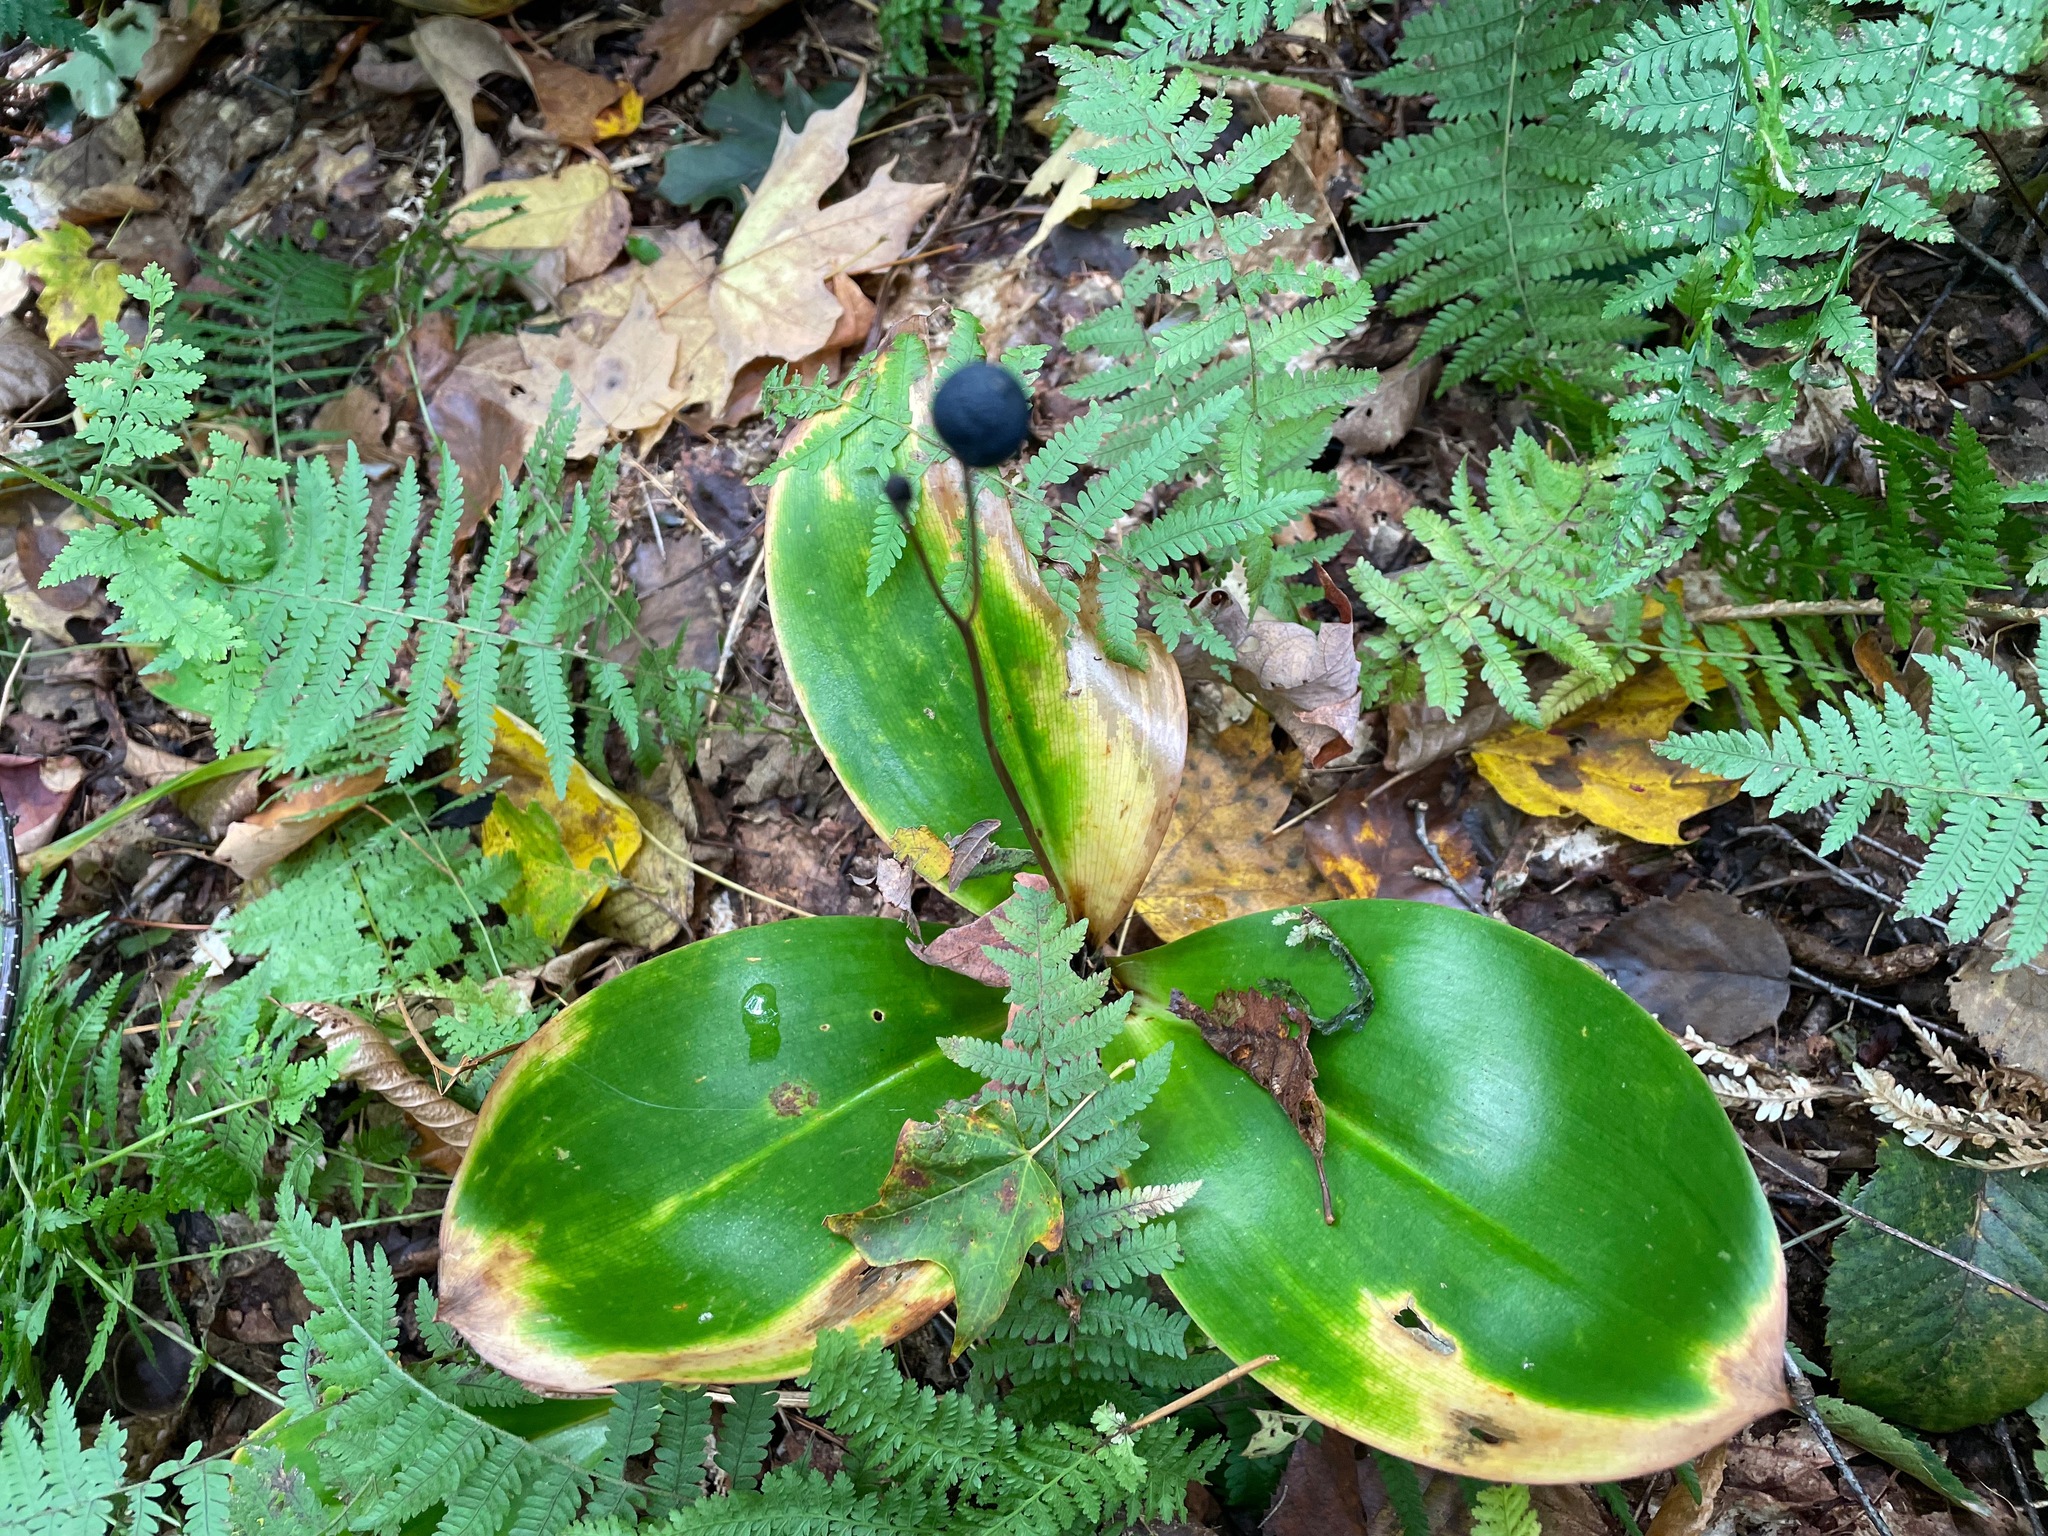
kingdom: Plantae
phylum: Tracheophyta
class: Liliopsida
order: Liliales
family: Liliaceae
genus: Clintonia
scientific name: Clintonia borealis
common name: Yellow clintonia
